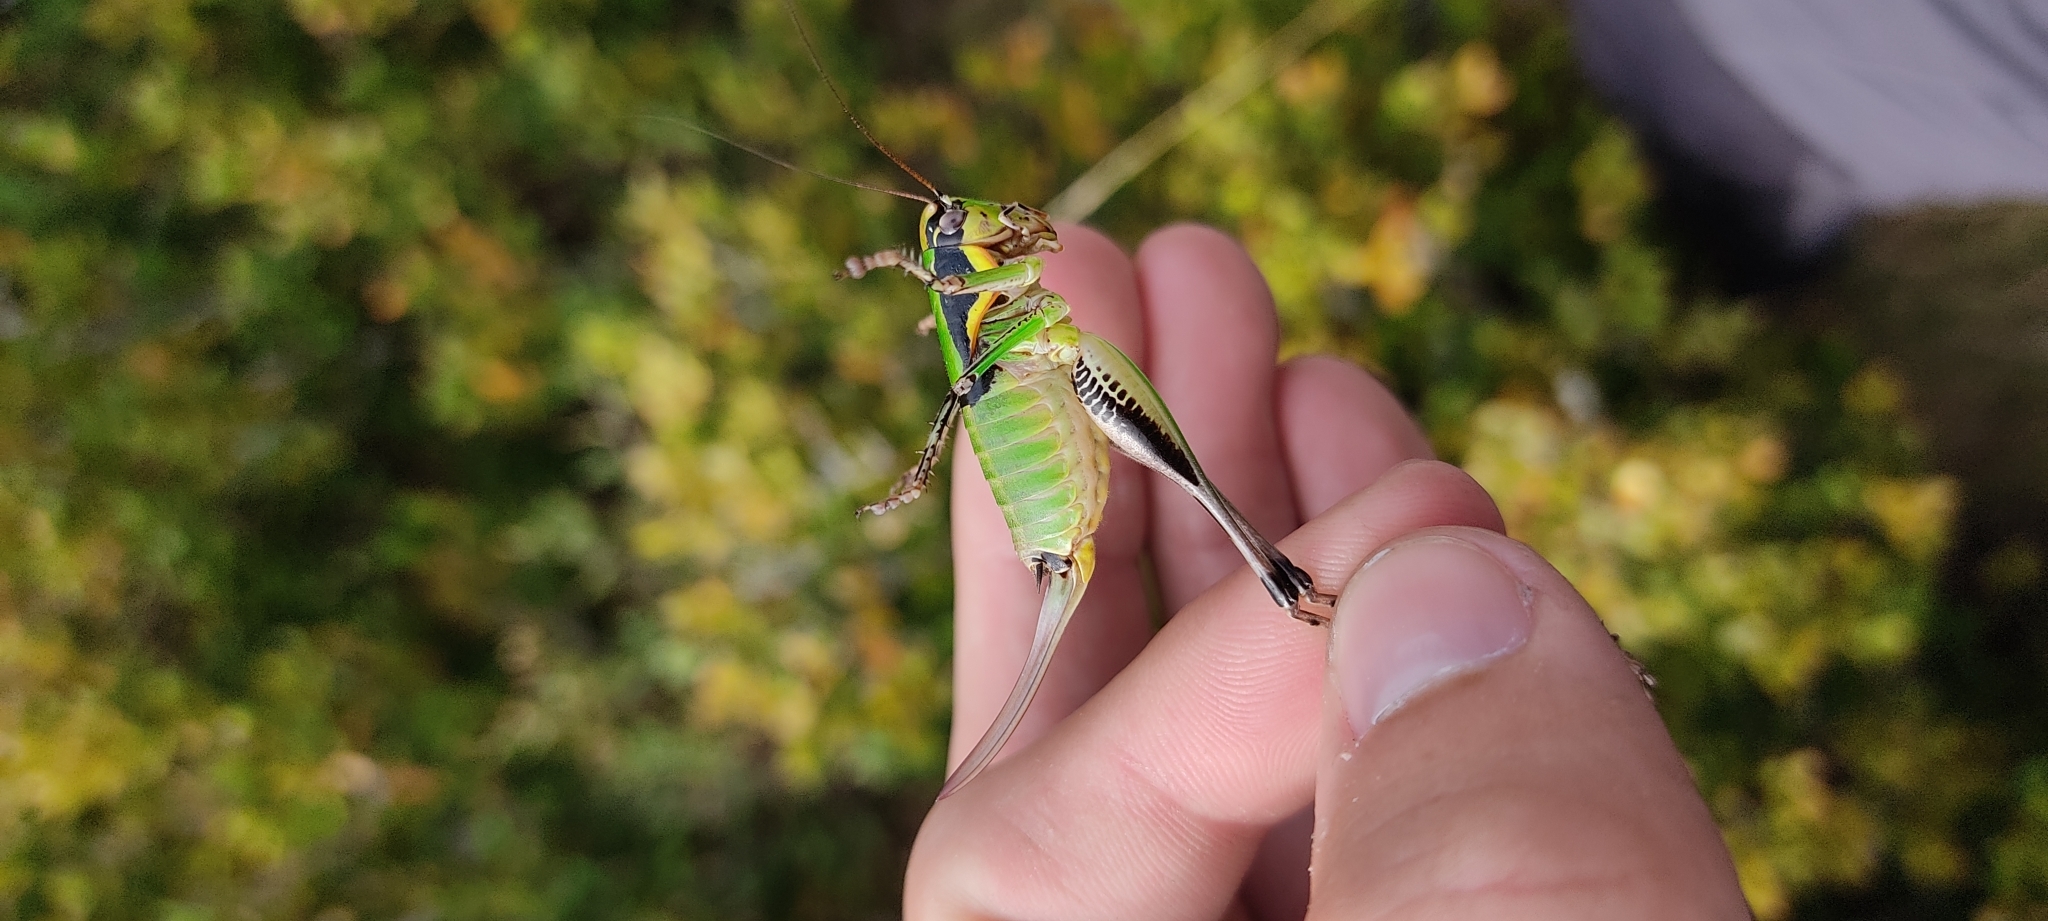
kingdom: Animalia
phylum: Arthropoda
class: Insecta
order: Orthoptera
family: Tettigoniidae
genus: Eupholidoptera
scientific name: Eupholidoptera chabrieri
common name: Chabrier's marbled bush-cricket
